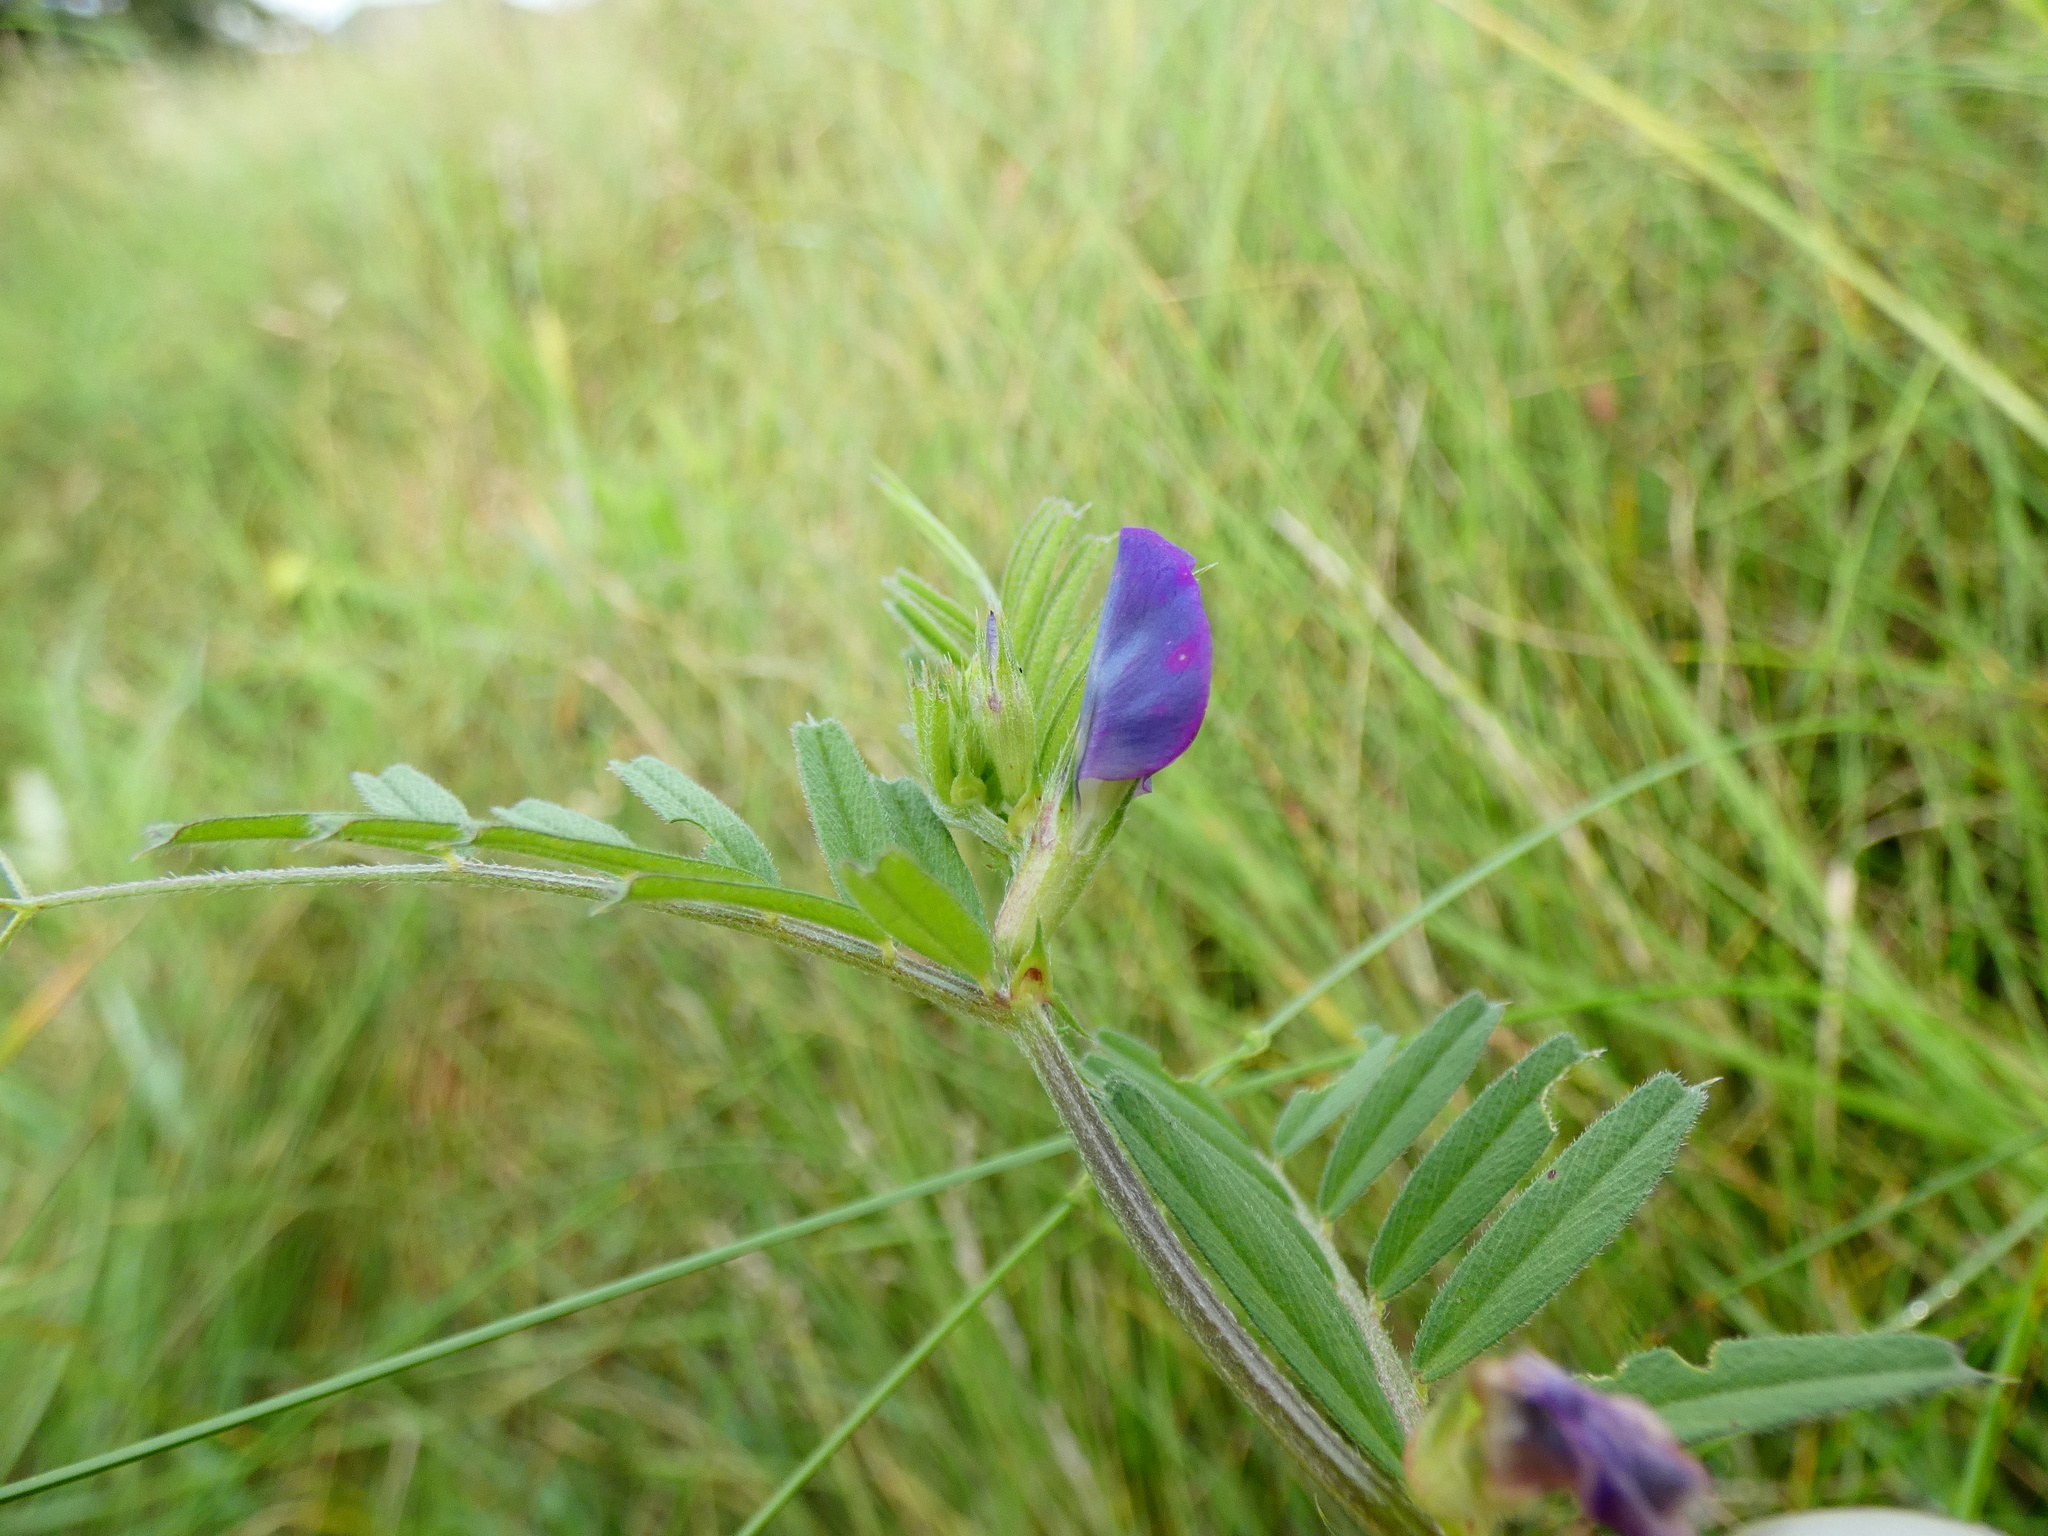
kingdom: Plantae
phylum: Tracheophyta
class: Magnoliopsida
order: Fabales
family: Fabaceae
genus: Vicia
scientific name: Vicia sativa
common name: Garden vetch
